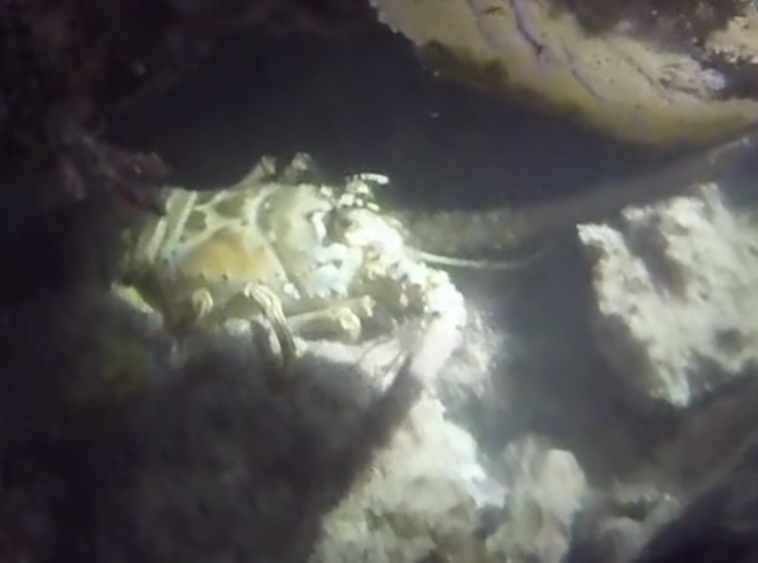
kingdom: Animalia
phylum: Arthropoda
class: Malacostraca
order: Decapoda
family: Palinuridae
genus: Panulirus
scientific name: Panulirus argus
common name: Caribbean spiny lobster
